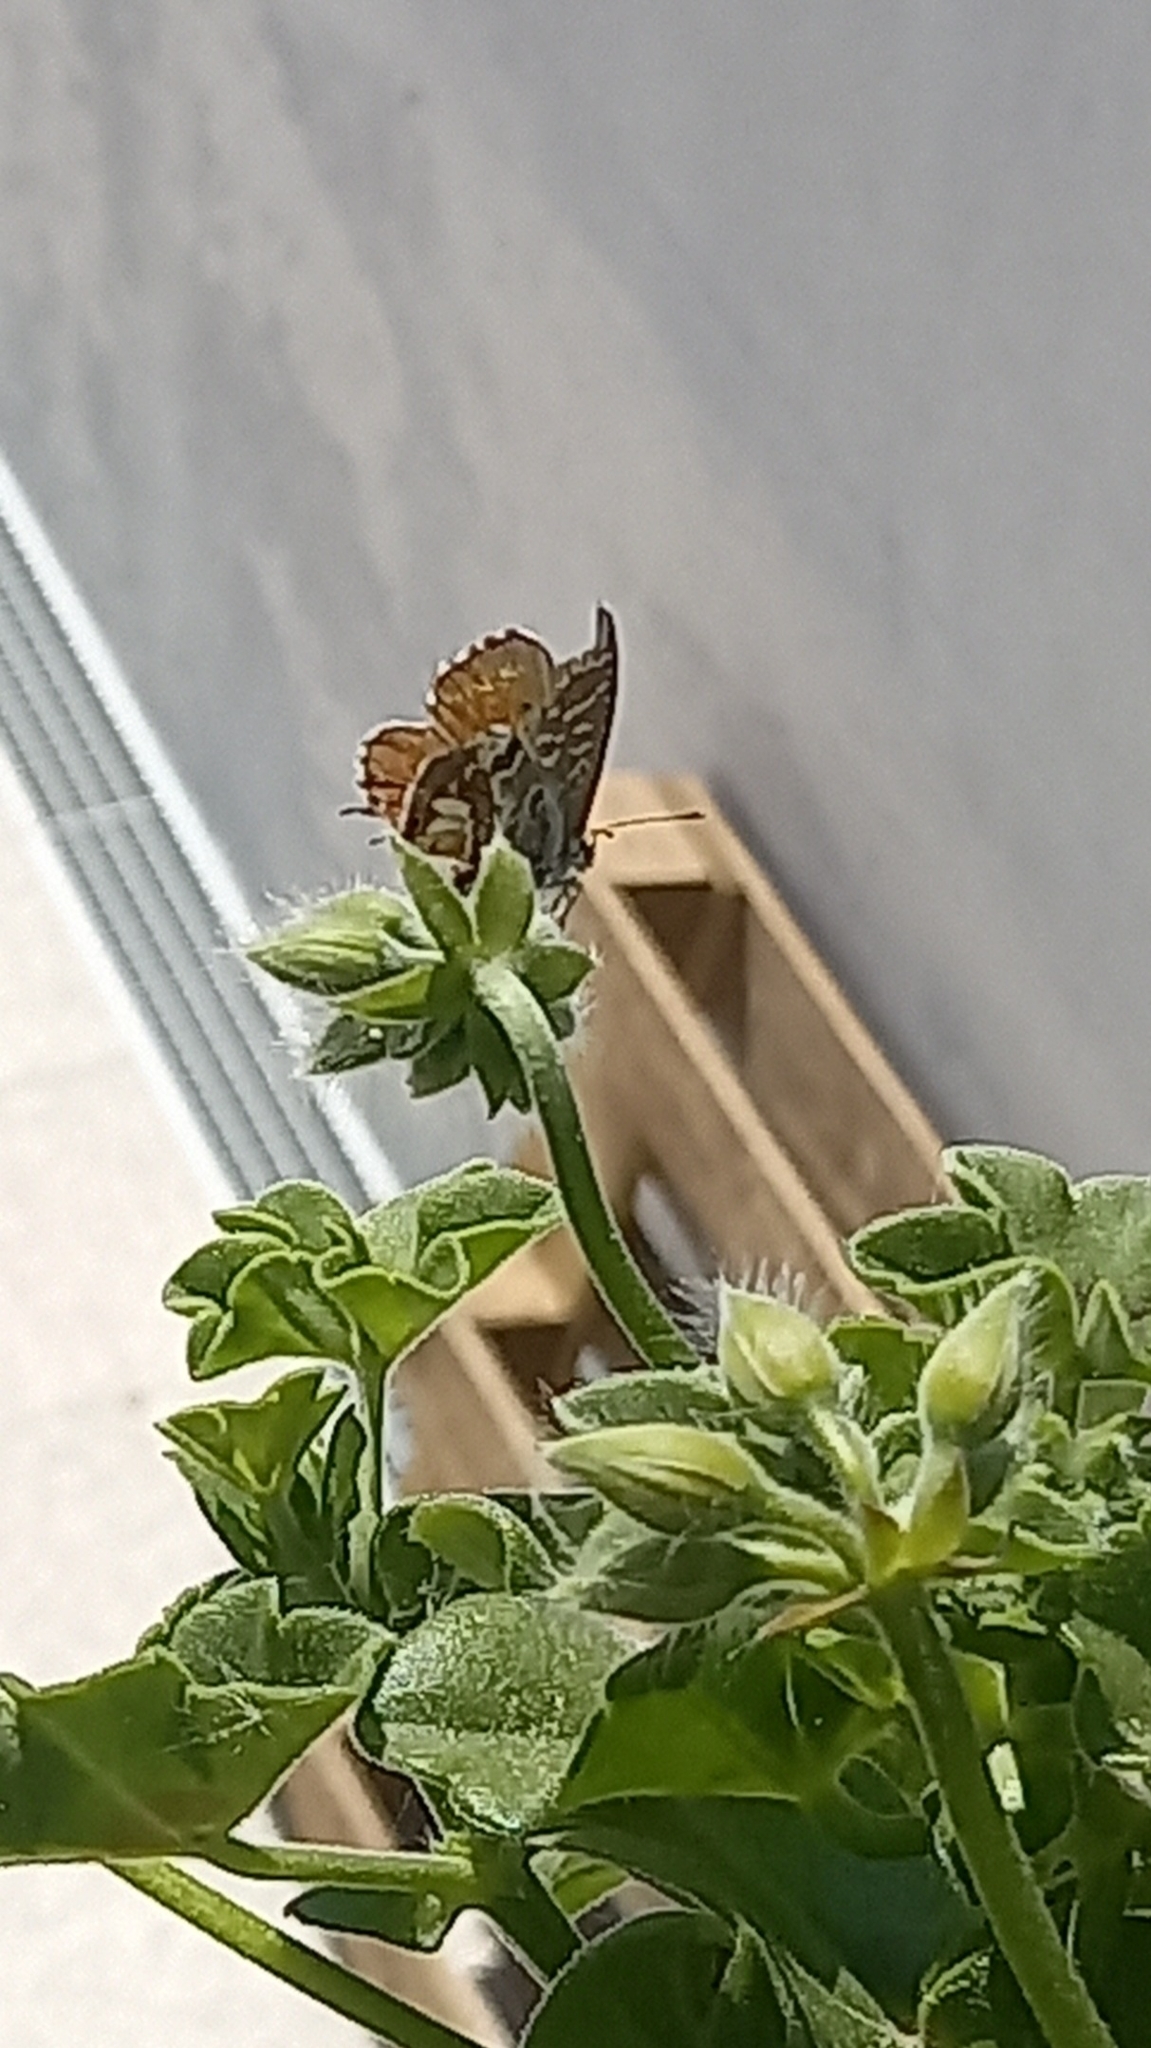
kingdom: Animalia
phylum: Arthropoda
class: Insecta
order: Lepidoptera
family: Lycaenidae
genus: Cacyreus
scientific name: Cacyreus marshalli
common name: Geranium bronze
